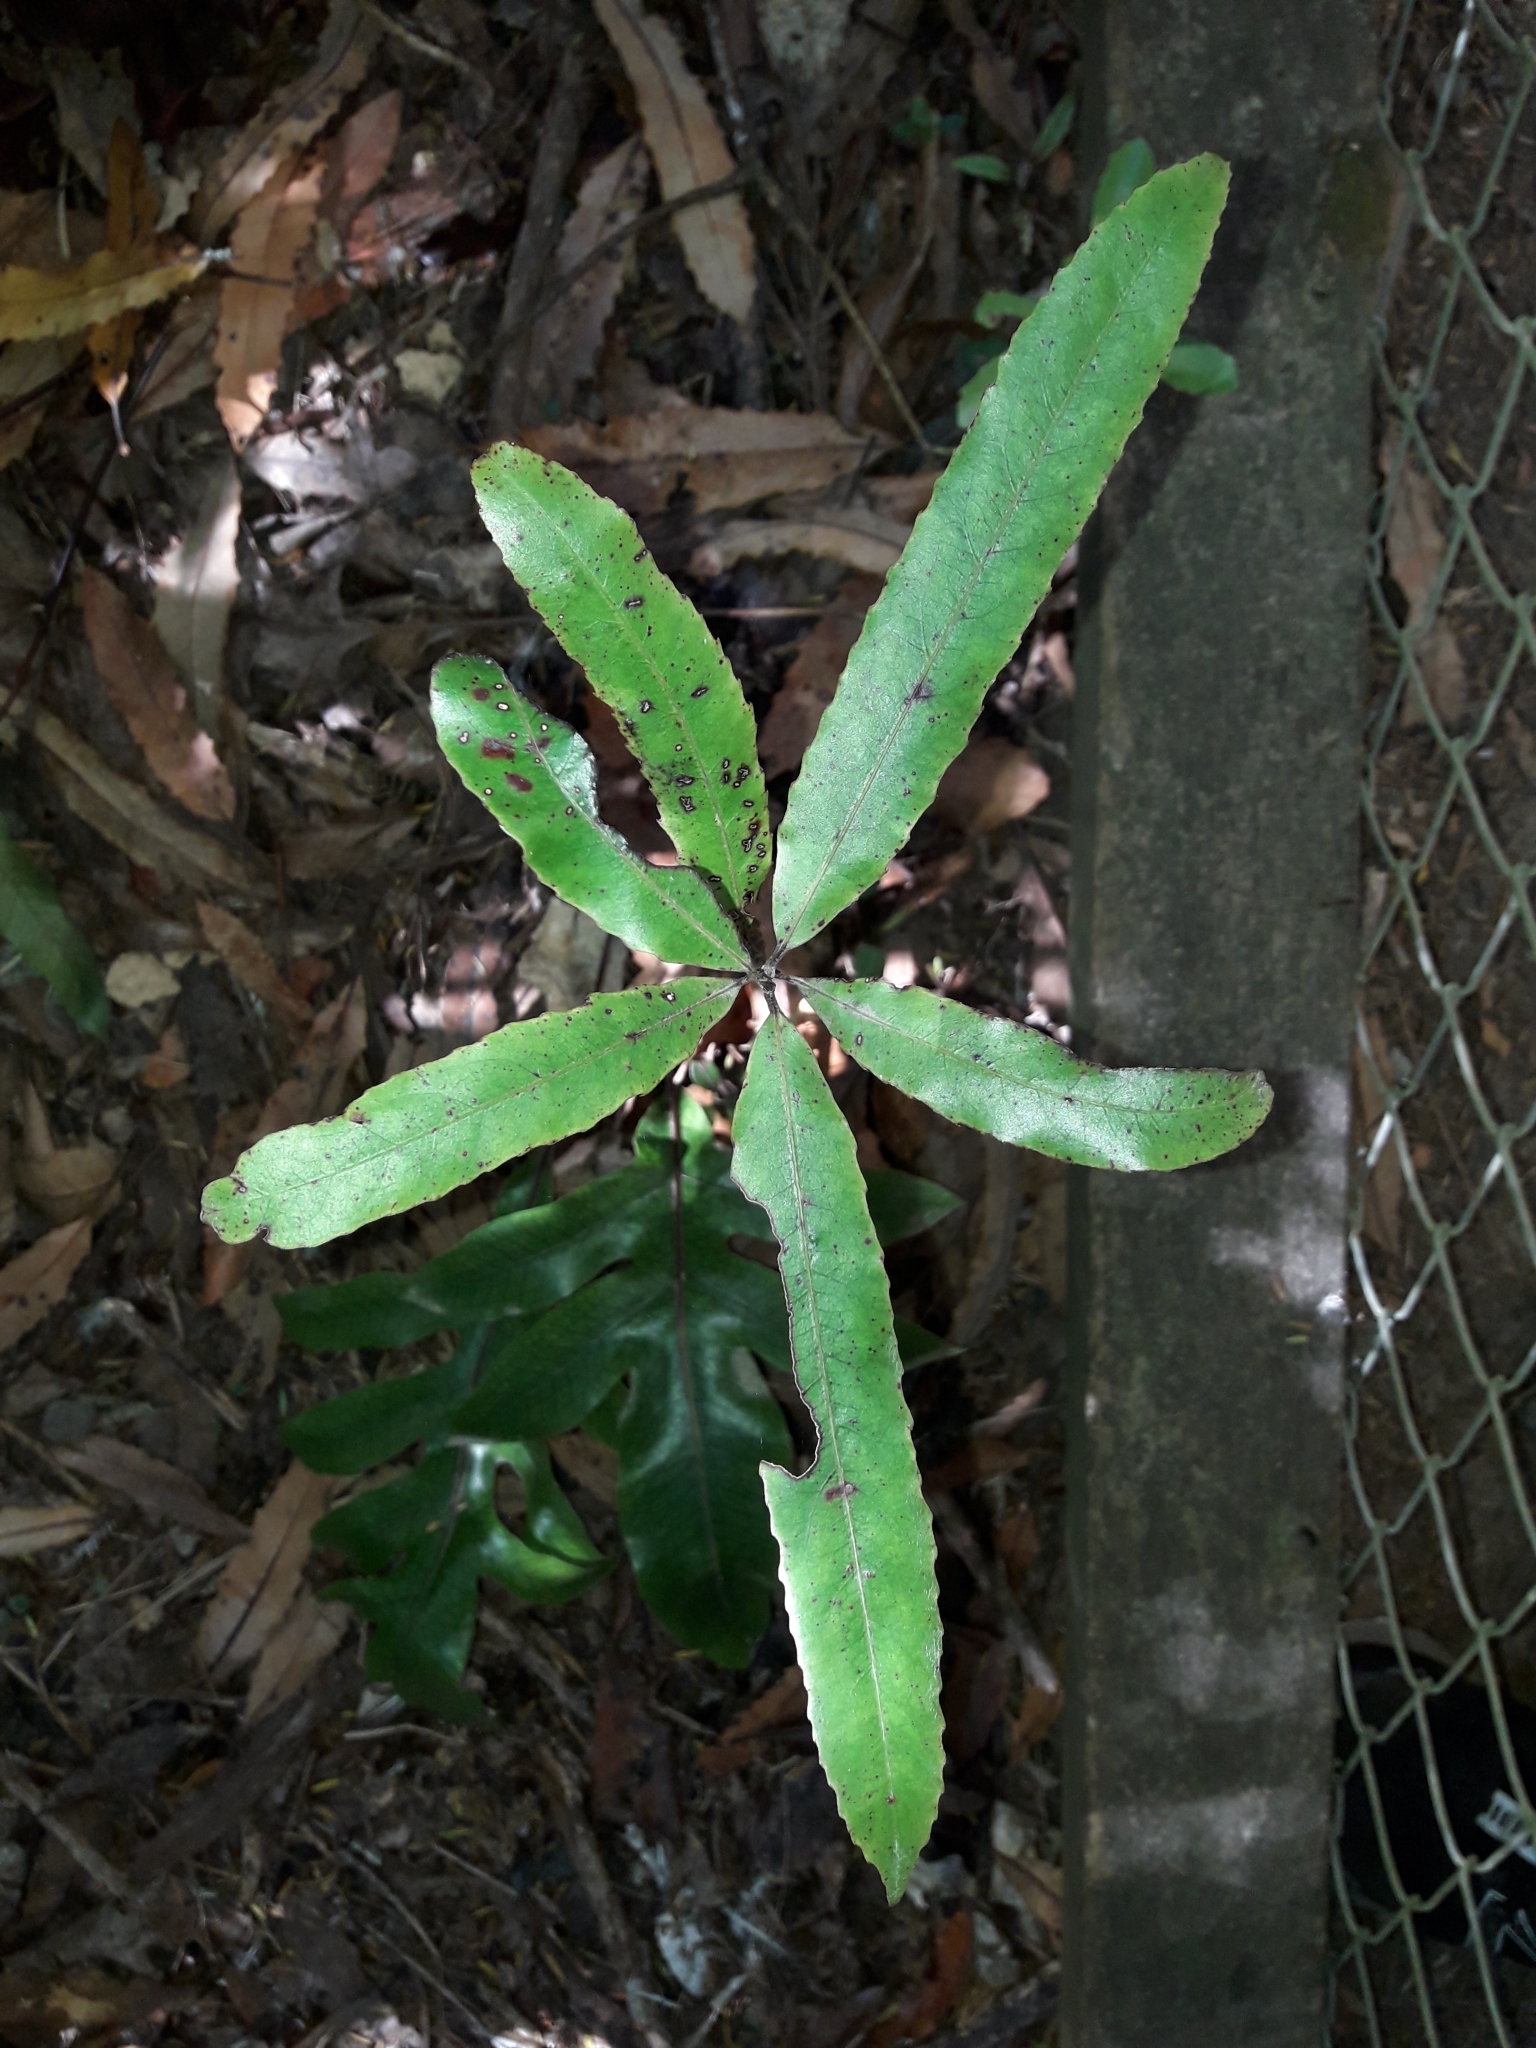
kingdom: Plantae
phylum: Tracheophyta
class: Magnoliopsida
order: Oxalidales
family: Elaeocarpaceae
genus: Elaeocarpus
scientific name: Elaeocarpus dentatus
